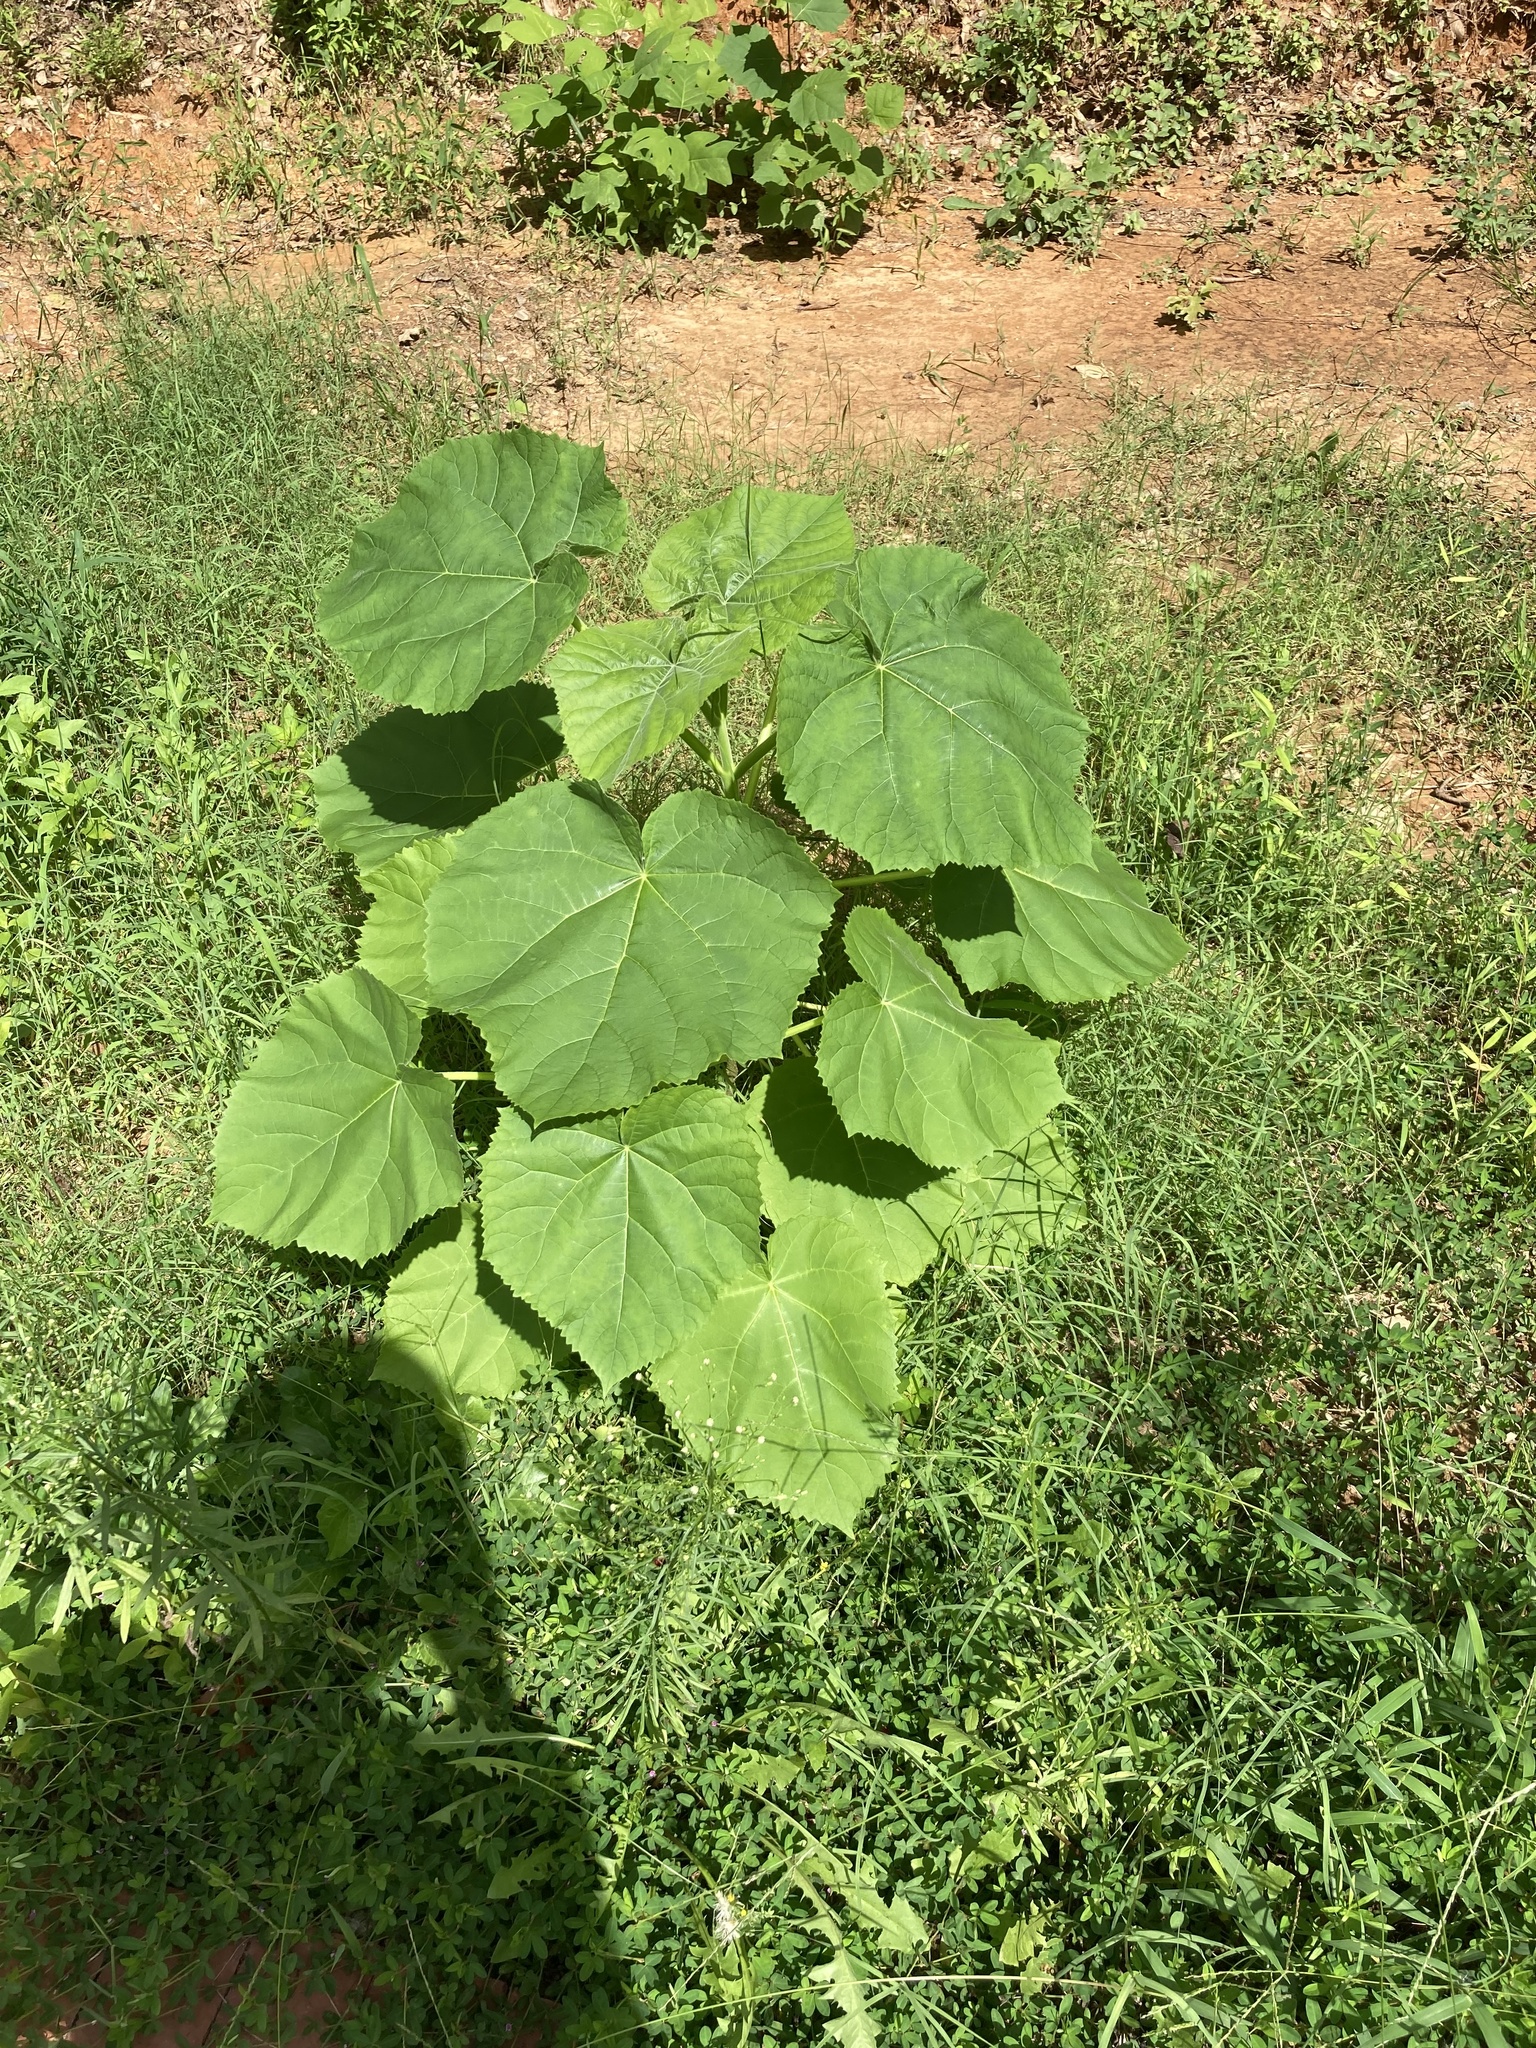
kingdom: Plantae
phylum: Tracheophyta
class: Magnoliopsida
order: Lamiales
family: Paulowniaceae
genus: Paulownia
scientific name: Paulownia tomentosa
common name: Foxglove-tree
